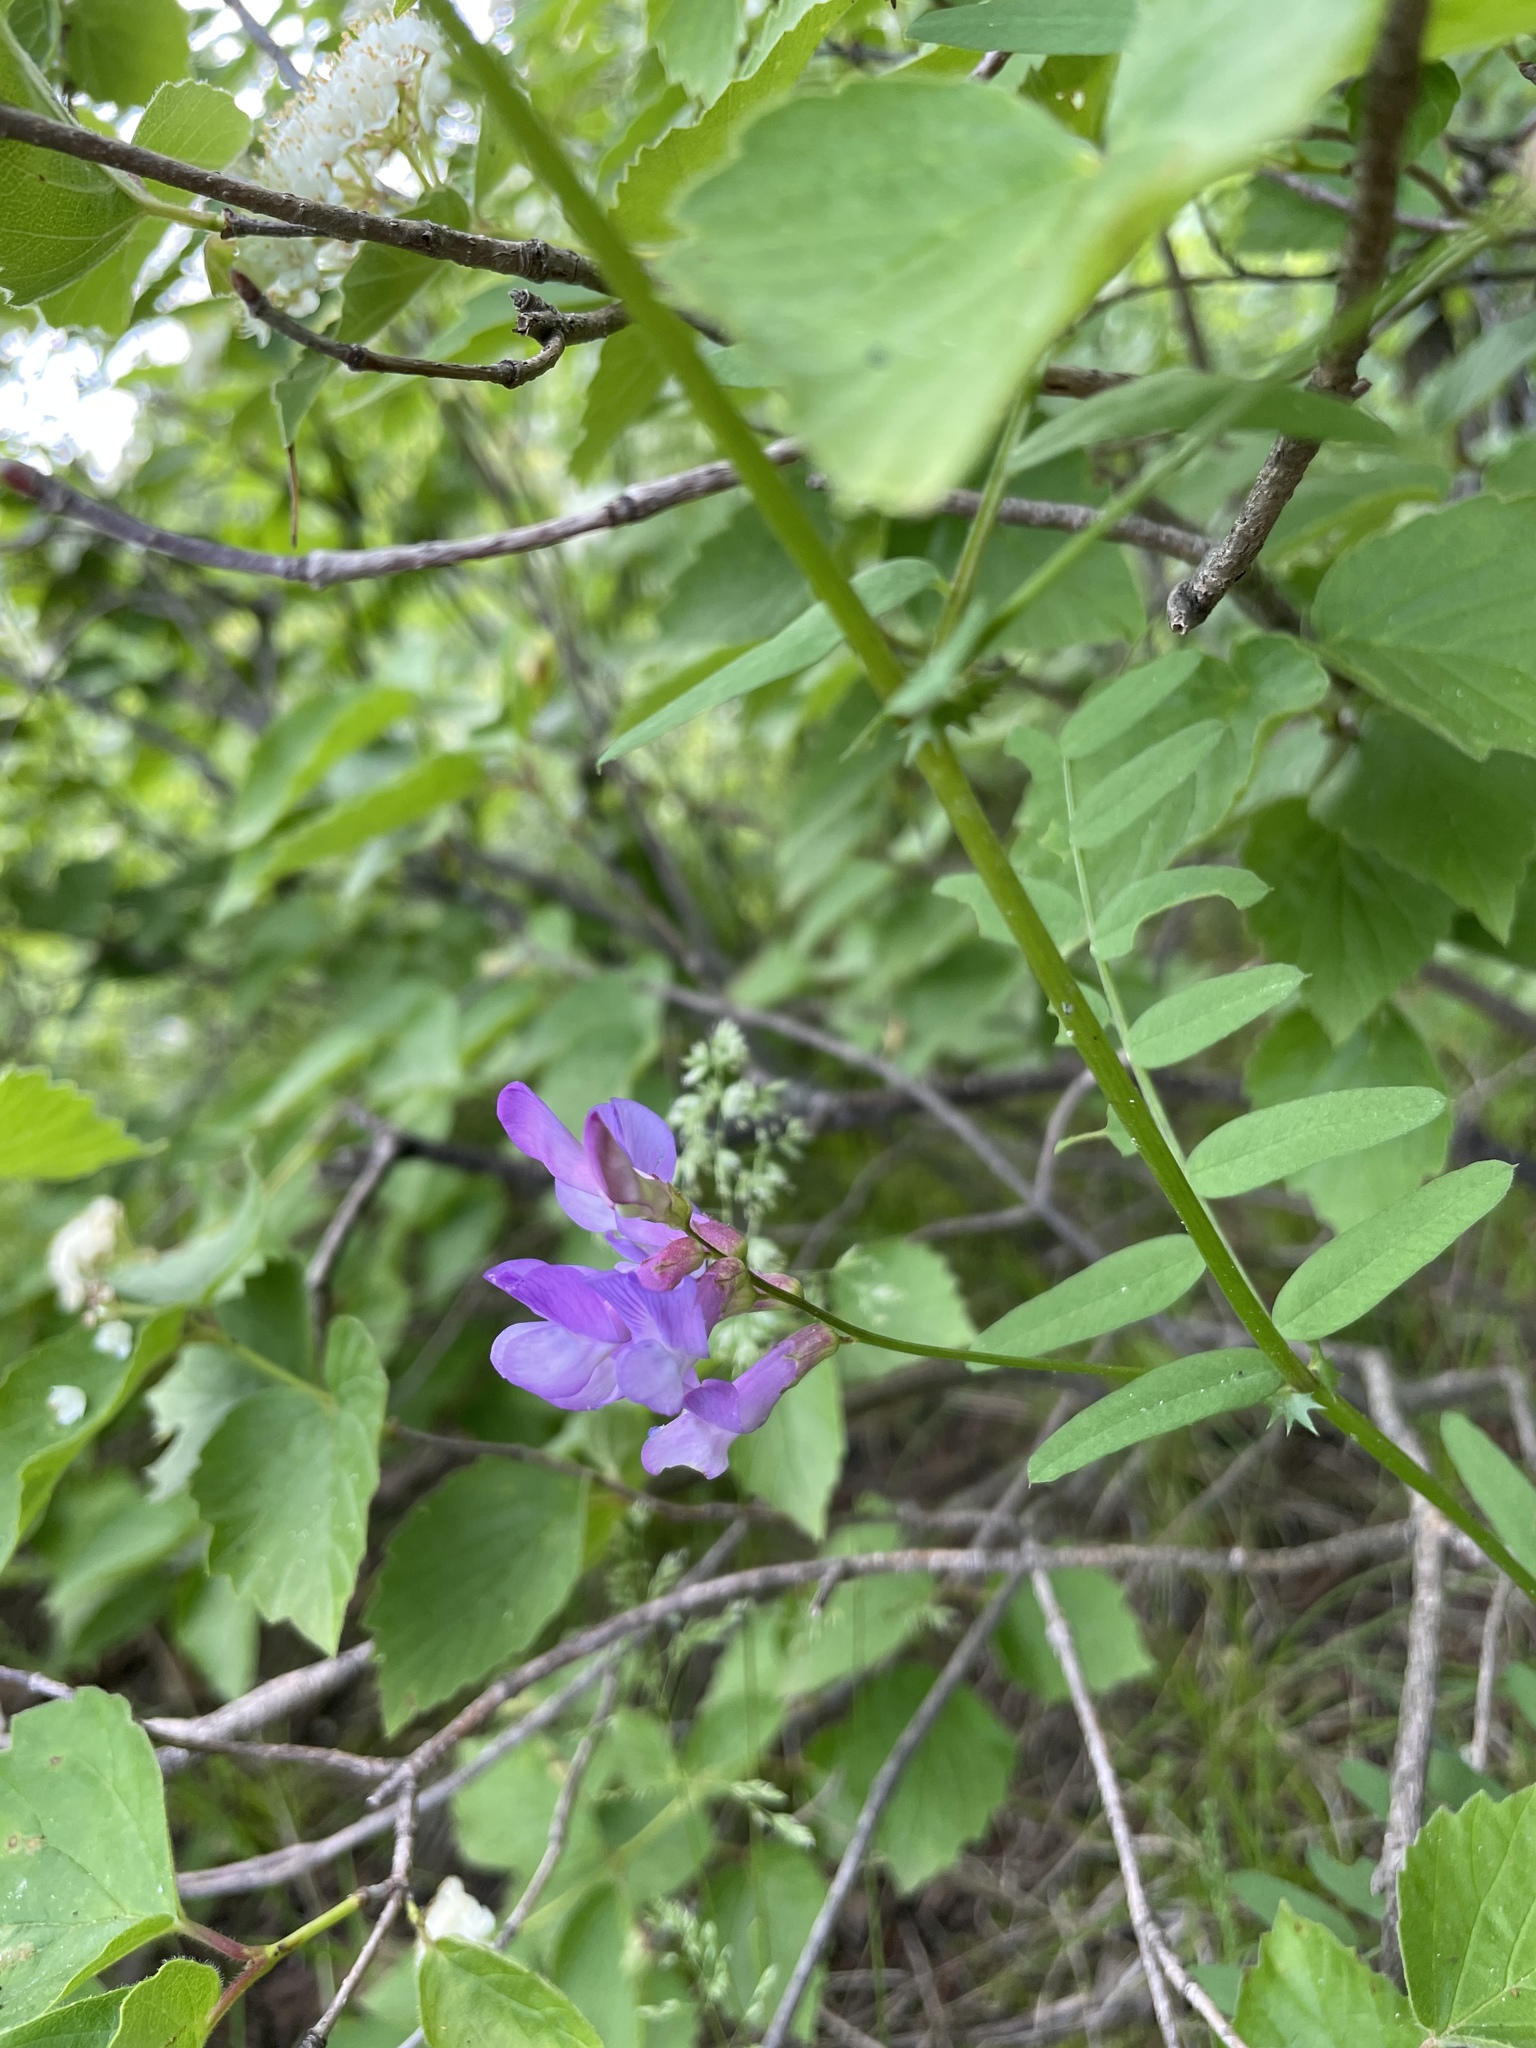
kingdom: Plantae
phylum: Tracheophyta
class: Magnoliopsida
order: Fabales
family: Fabaceae
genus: Vicia
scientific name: Vicia americana
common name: American vetch
